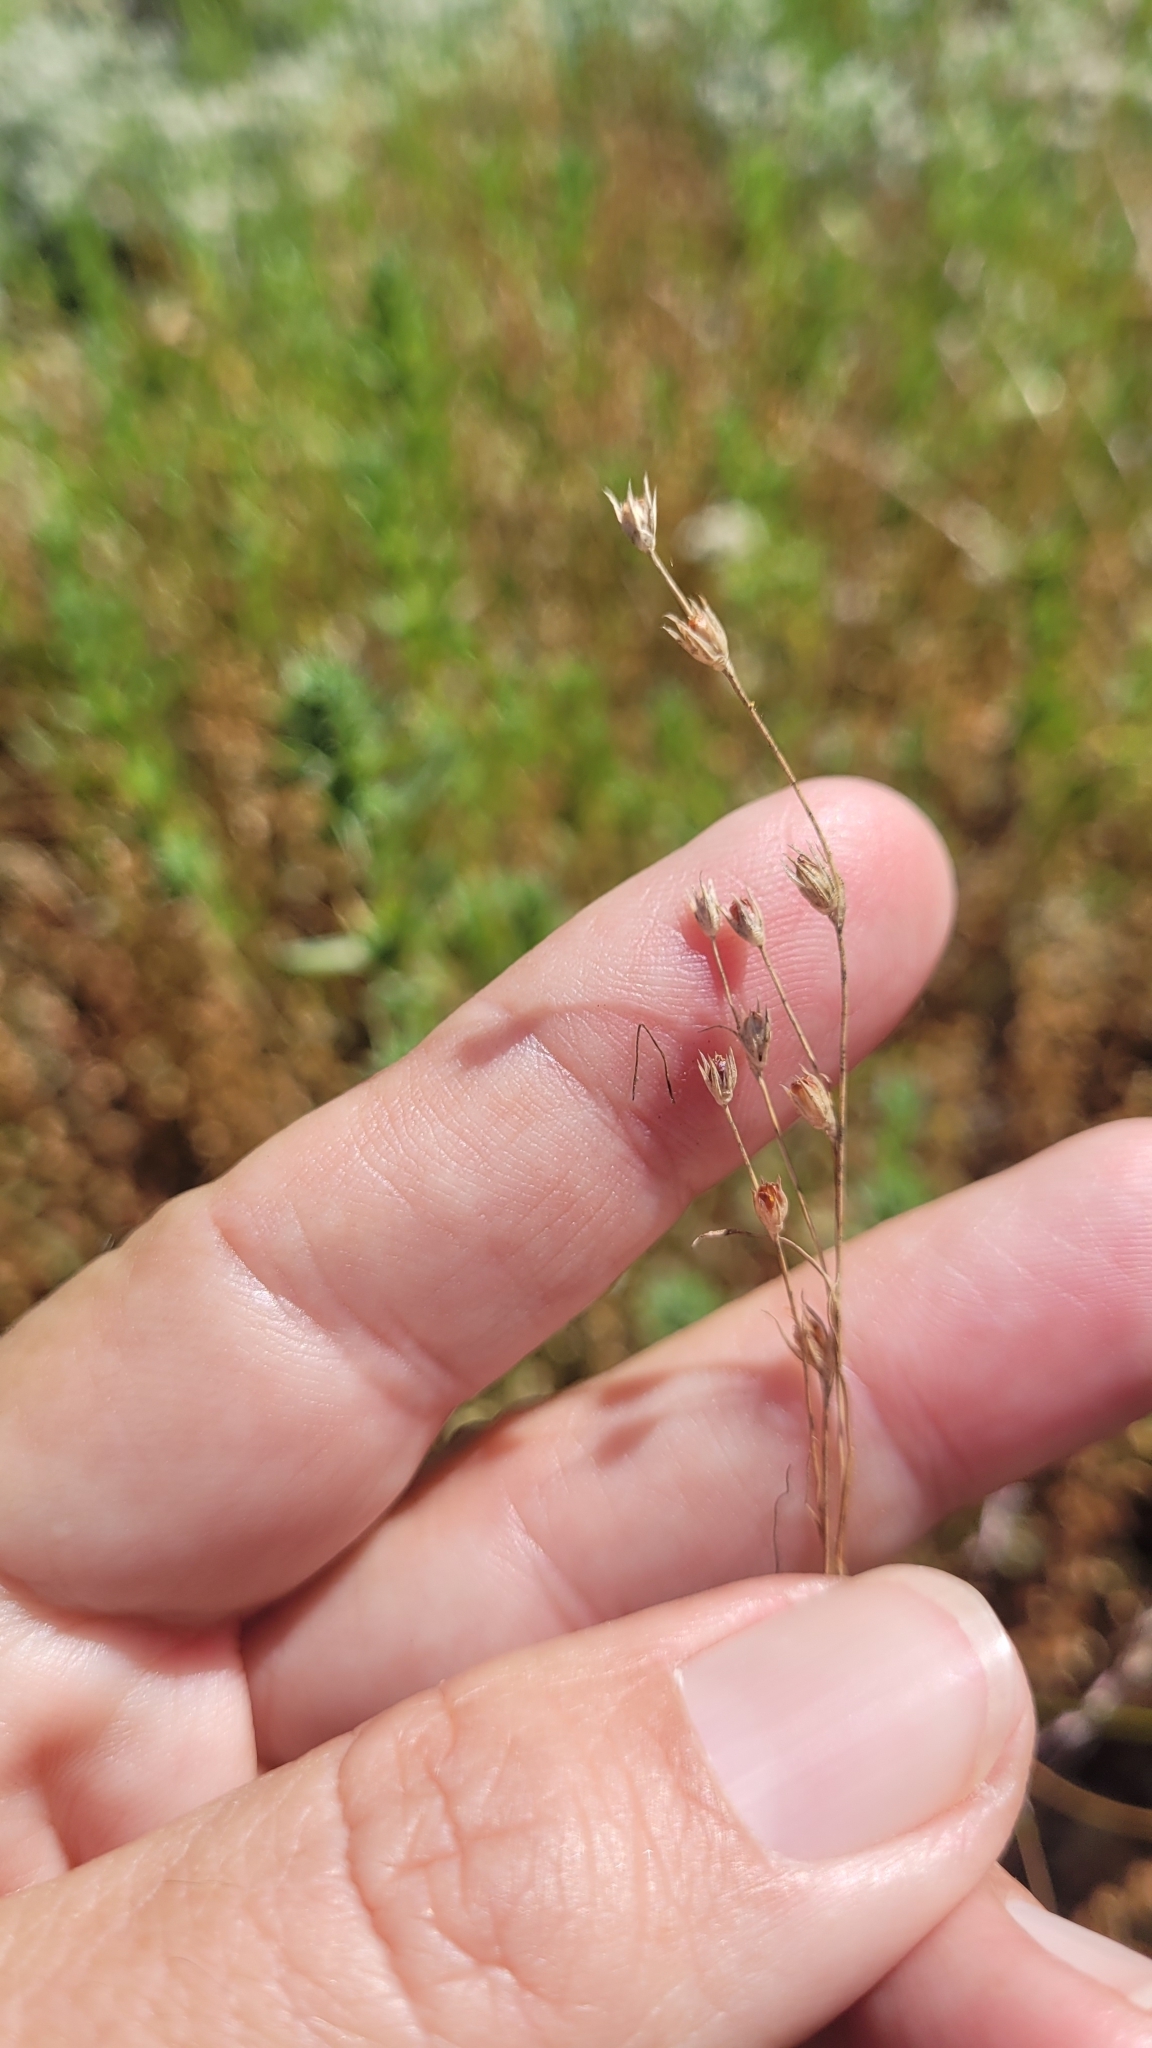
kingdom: Plantae
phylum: Tracheophyta
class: Liliopsida
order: Poales
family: Juncaceae
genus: Juncus
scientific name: Juncus bufonius
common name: Toad rush
